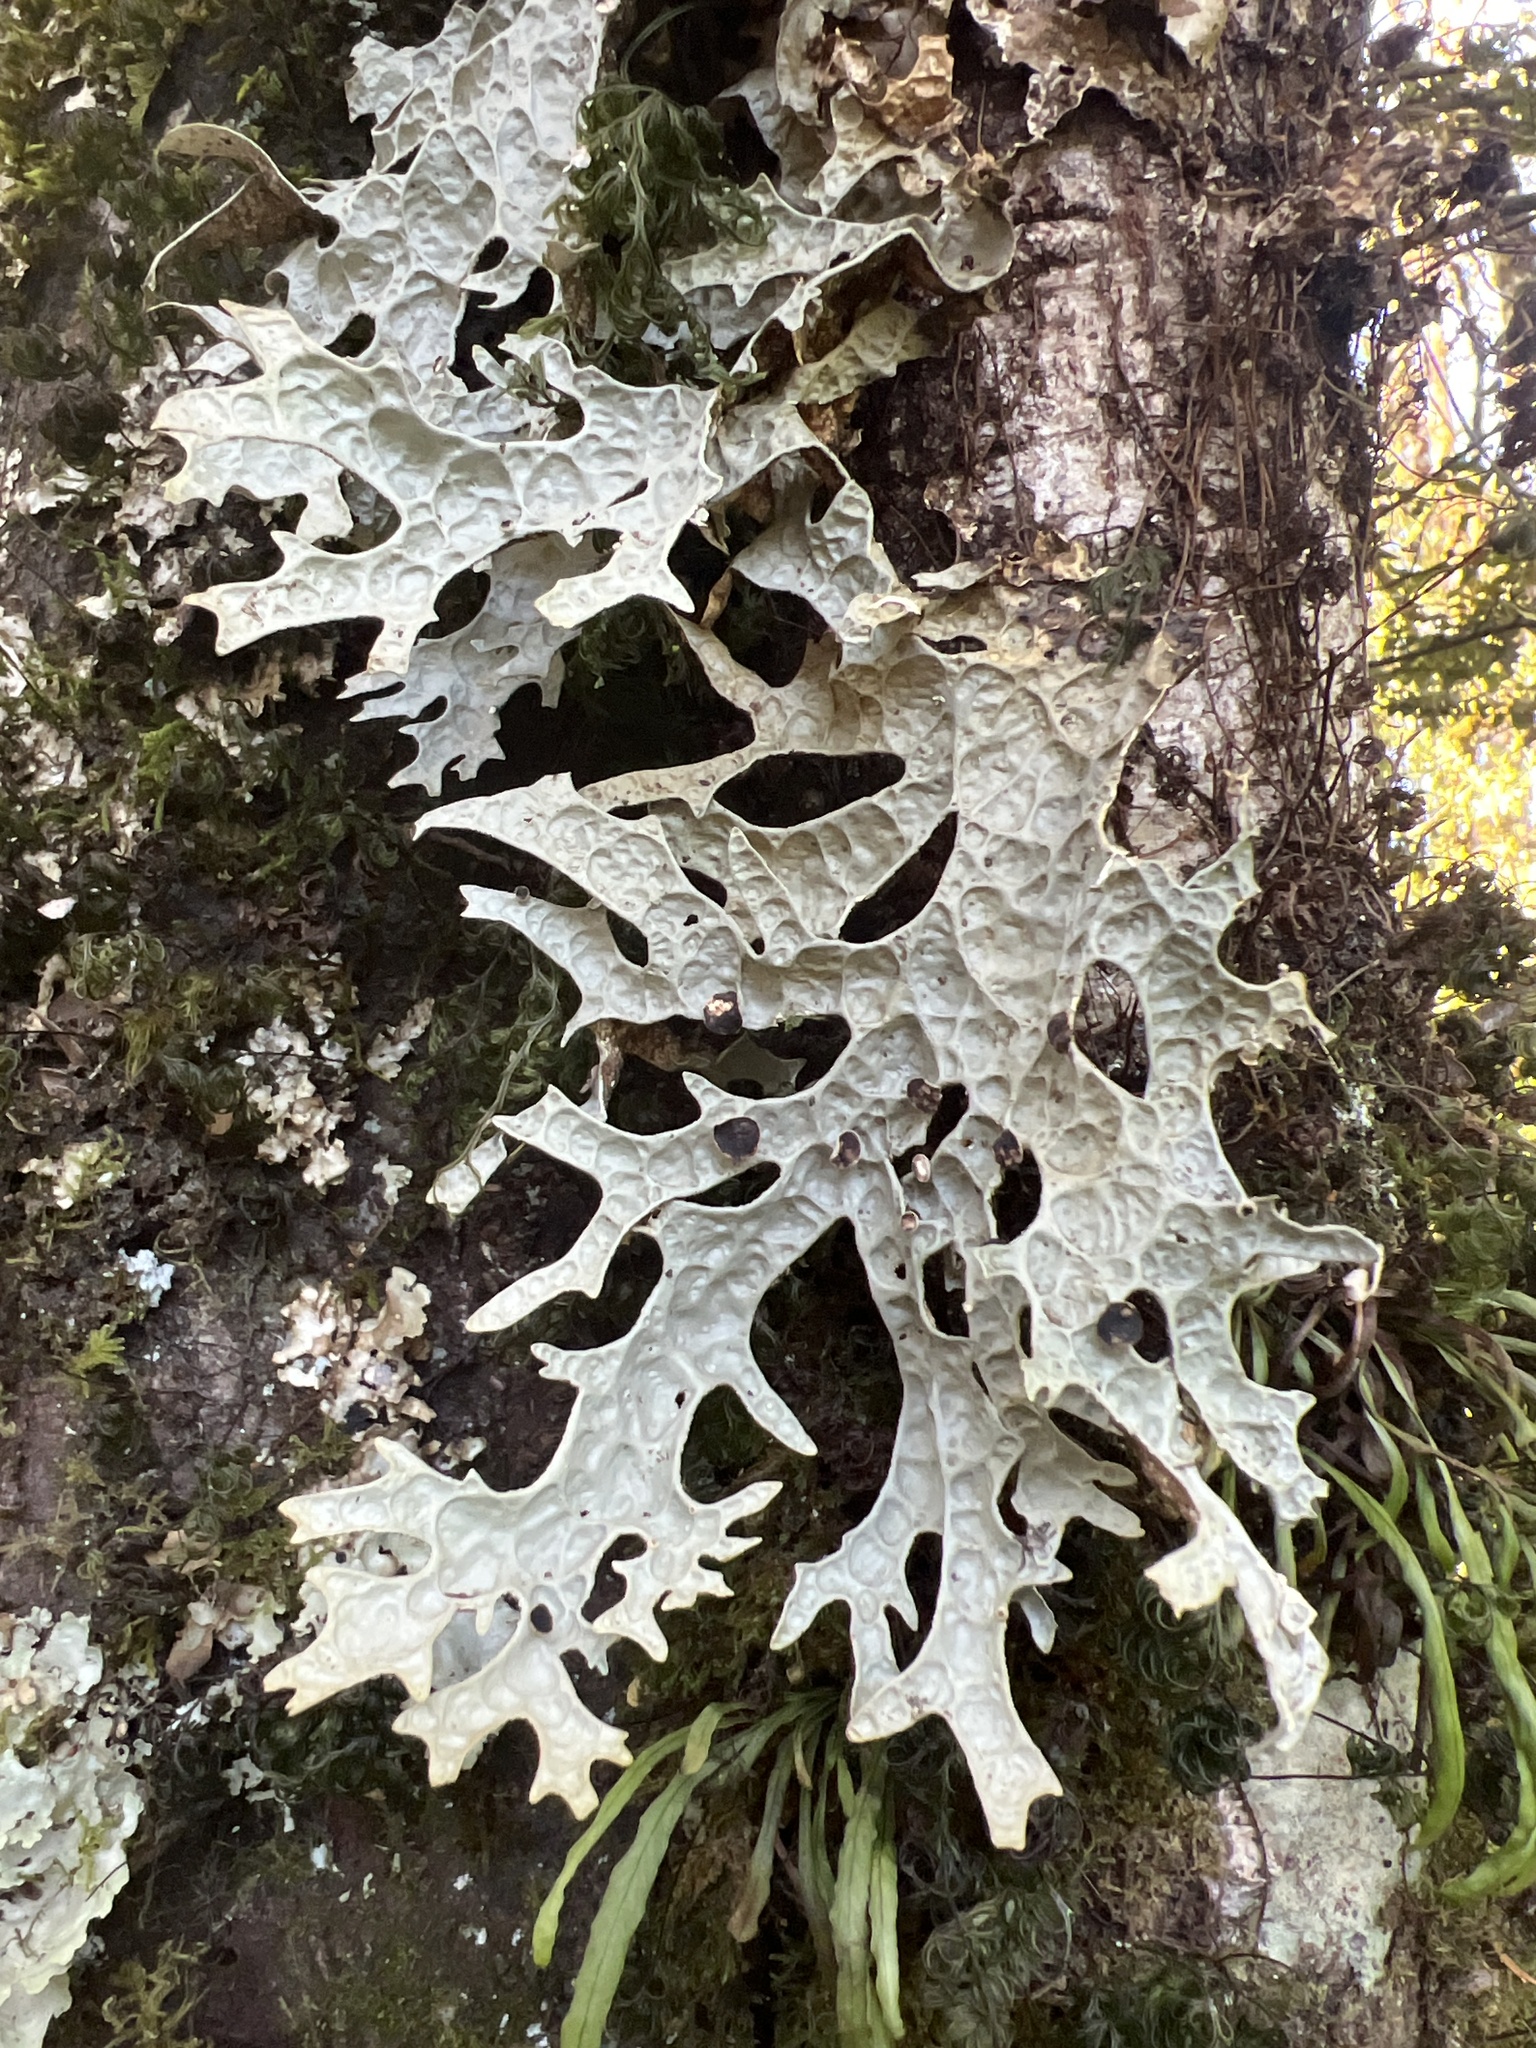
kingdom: Fungi
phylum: Ascomycota
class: Lecanoromycetes
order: Peltigerales
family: Lobariaceae
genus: Pseudocyphellaria
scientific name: Pseudocyphellaria faveolata
